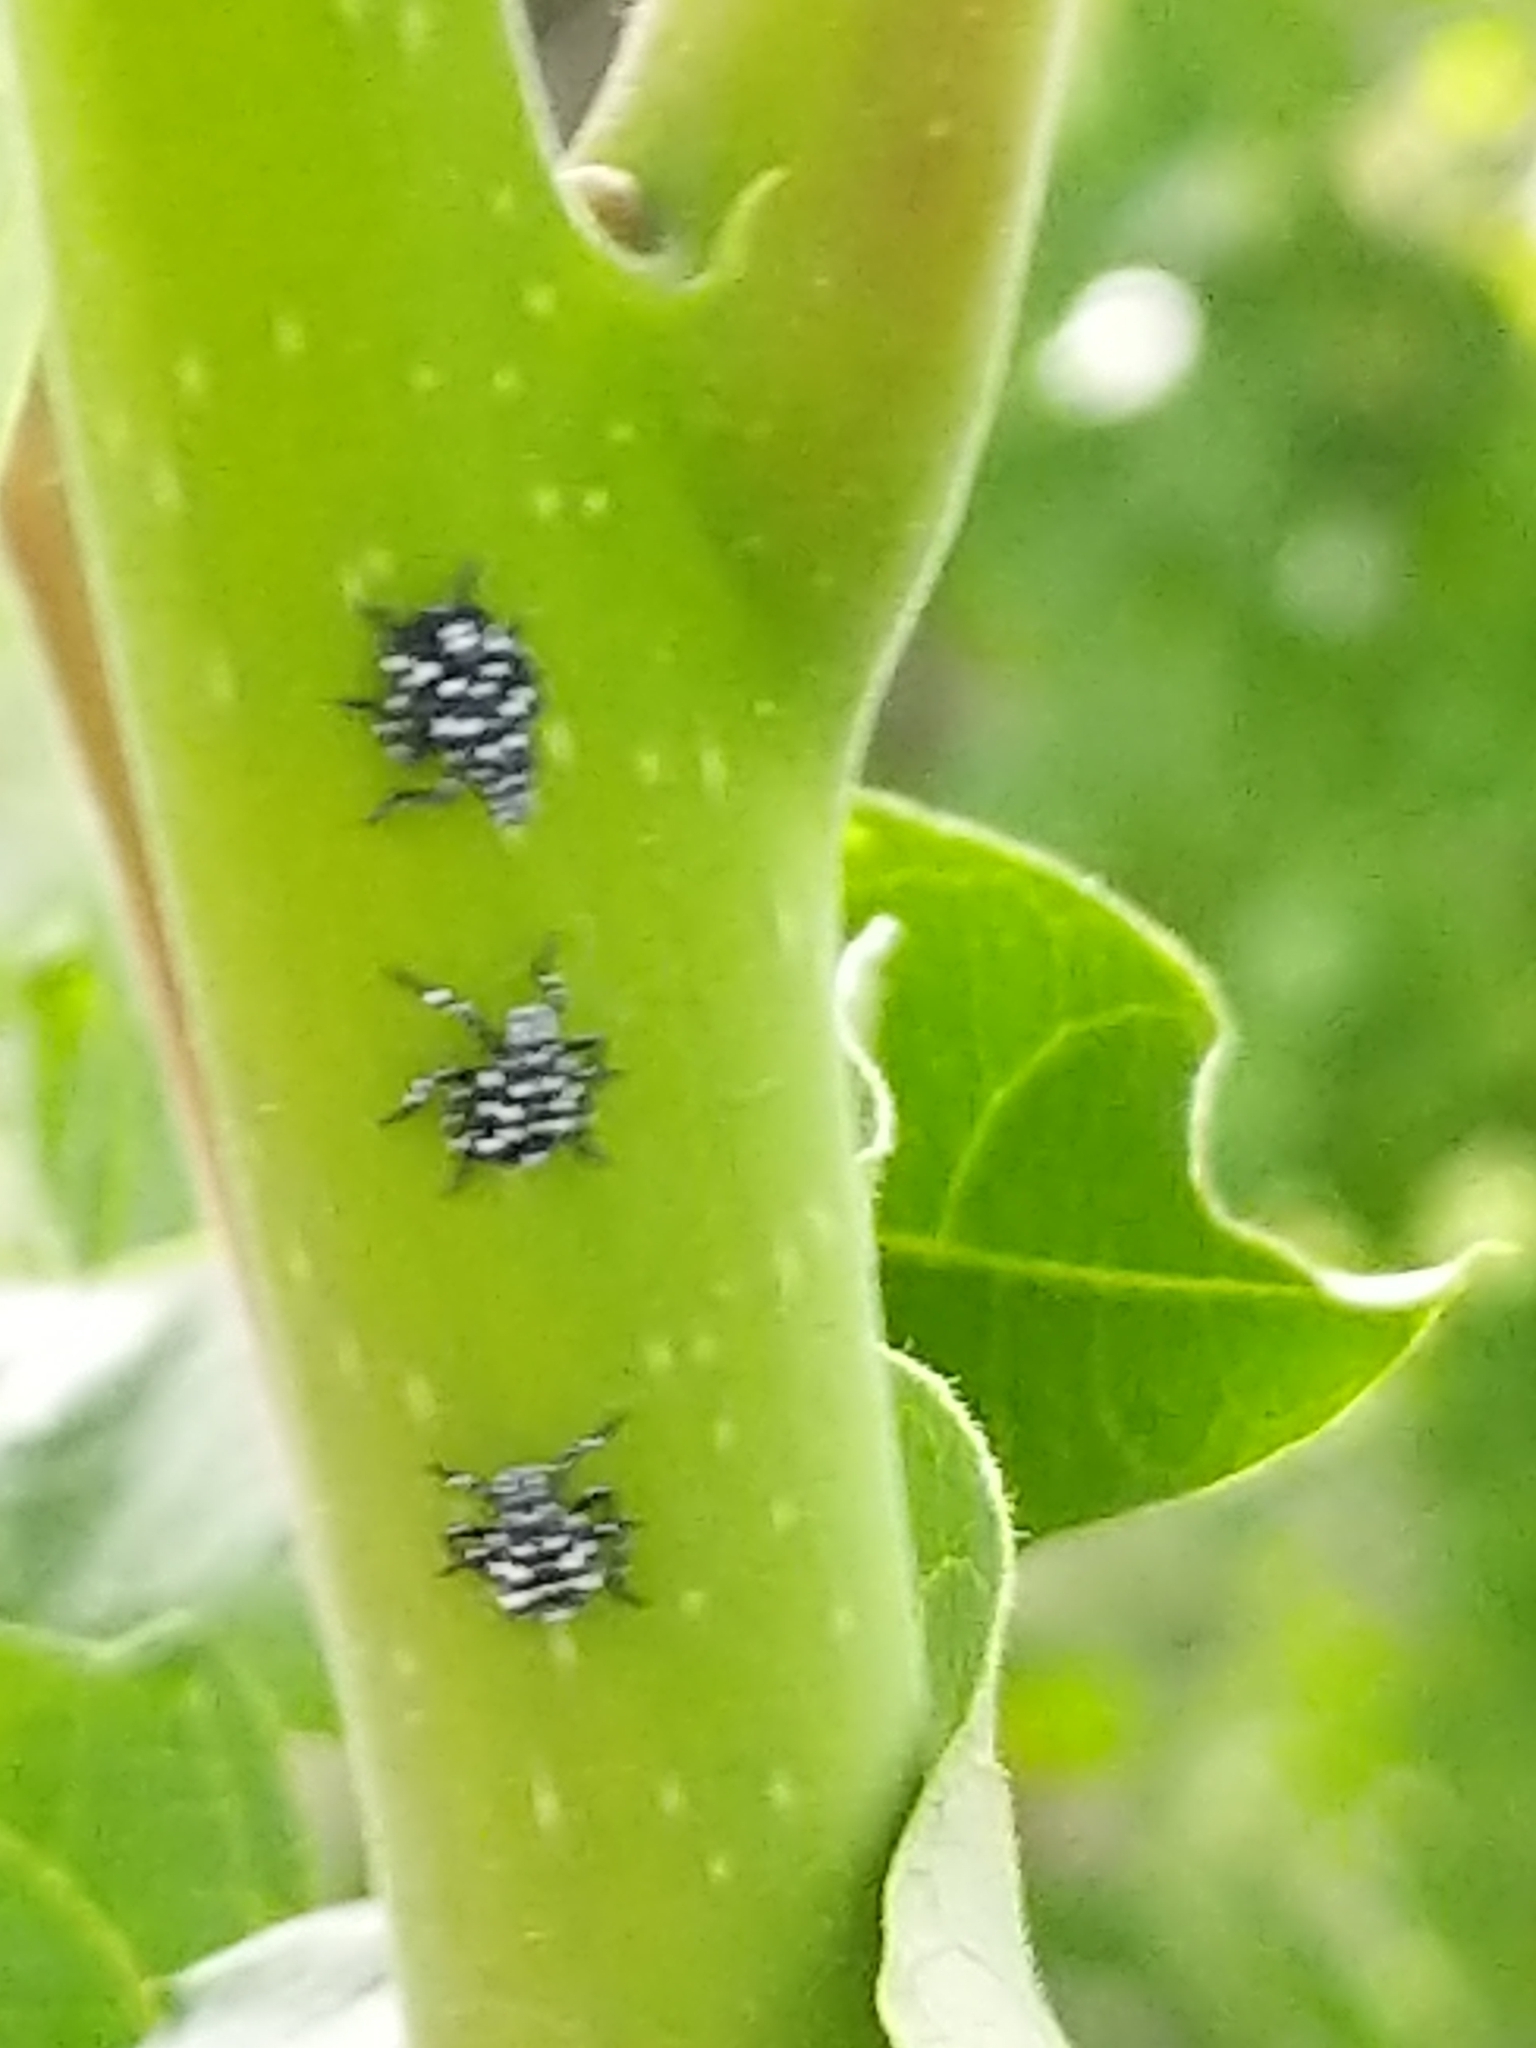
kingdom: Animalia
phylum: Arthropoda
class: Insecta
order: Hemiptera
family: Fulgoridae
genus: Lycorma
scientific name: Lycorma delicatula
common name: Spotted lanternfly
